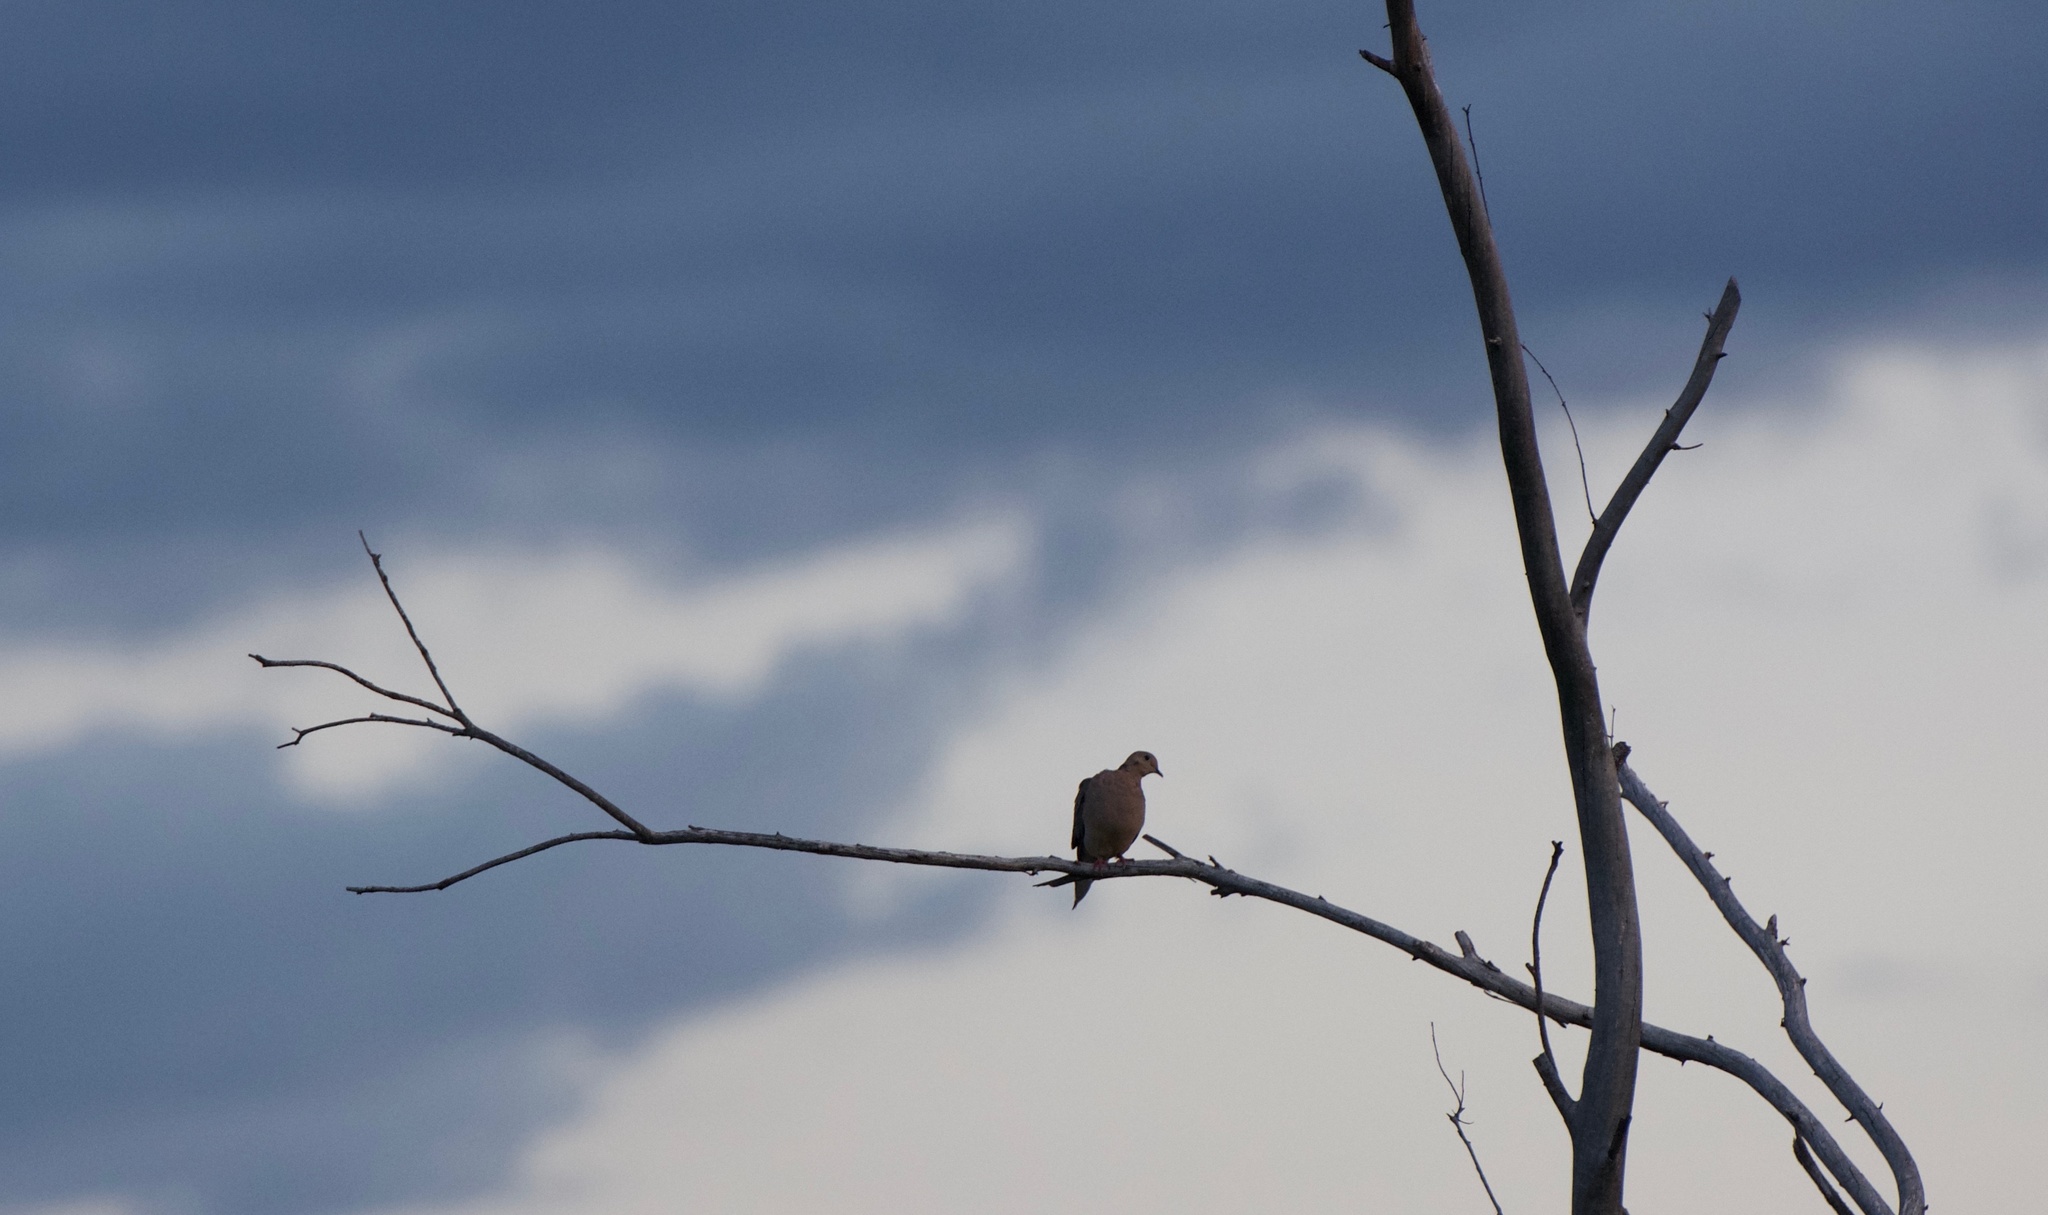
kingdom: Animalia
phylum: Chordata
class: Aves
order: Columbiformes
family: Columbidae
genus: Zenaida
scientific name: Zenaida macroura
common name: Mourning dove
